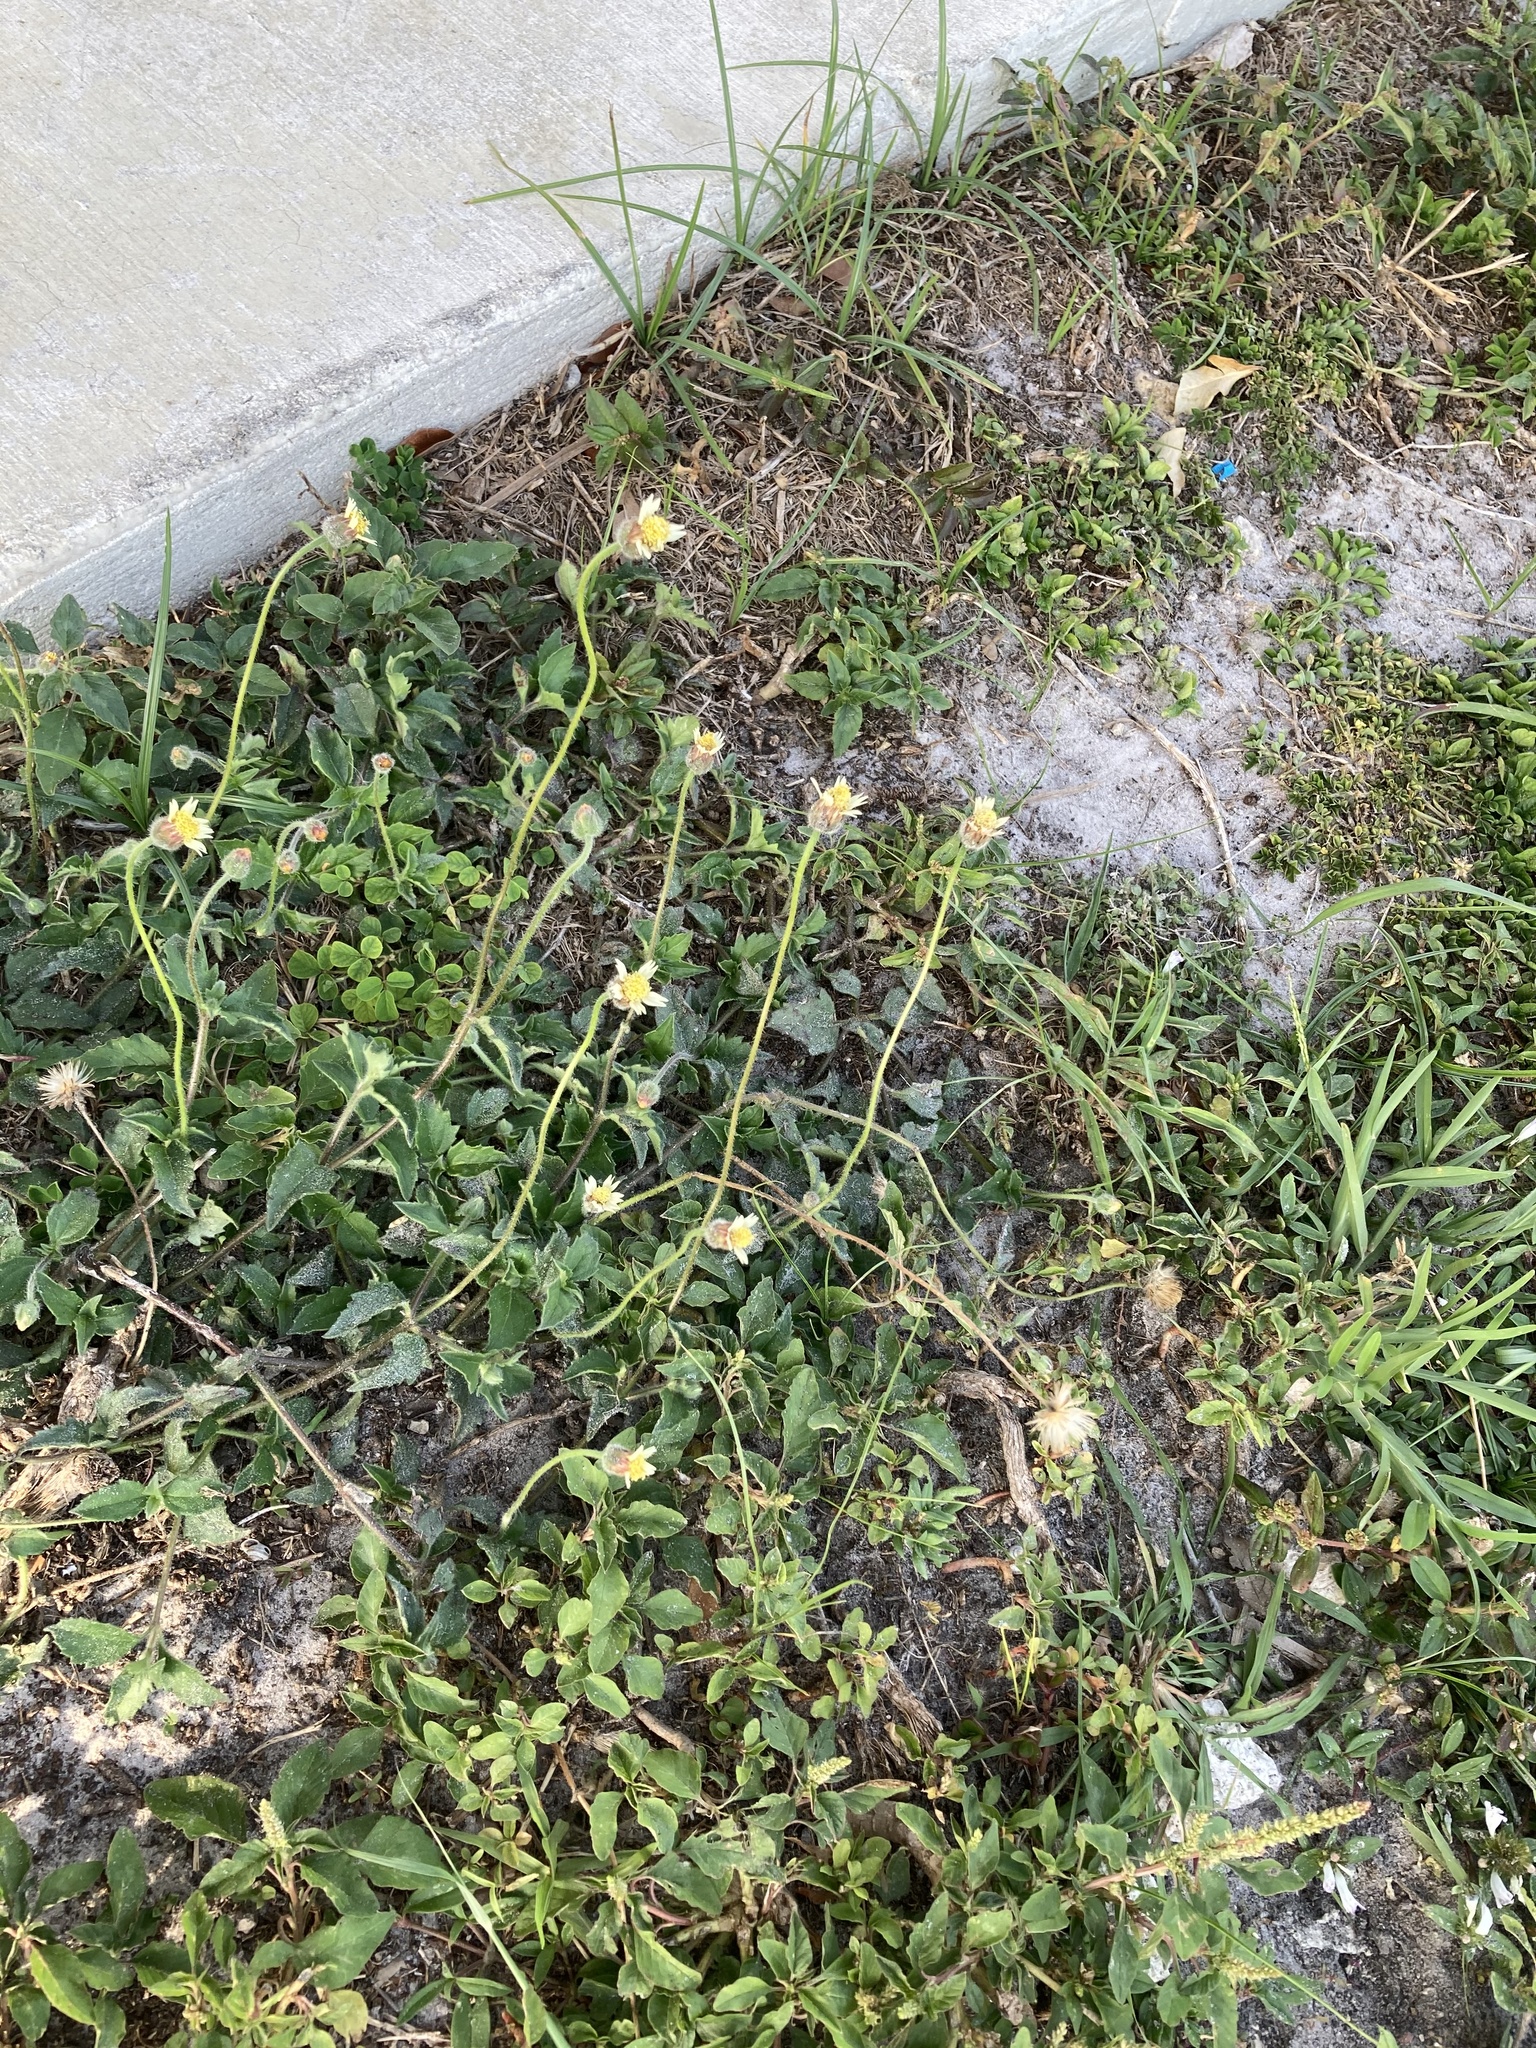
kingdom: Plantae
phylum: Tracheophyta
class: Magnoliopsida
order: Asterales
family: Asteraceae
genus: Tridax
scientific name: Tridax procumbens
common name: Coatbuttons
